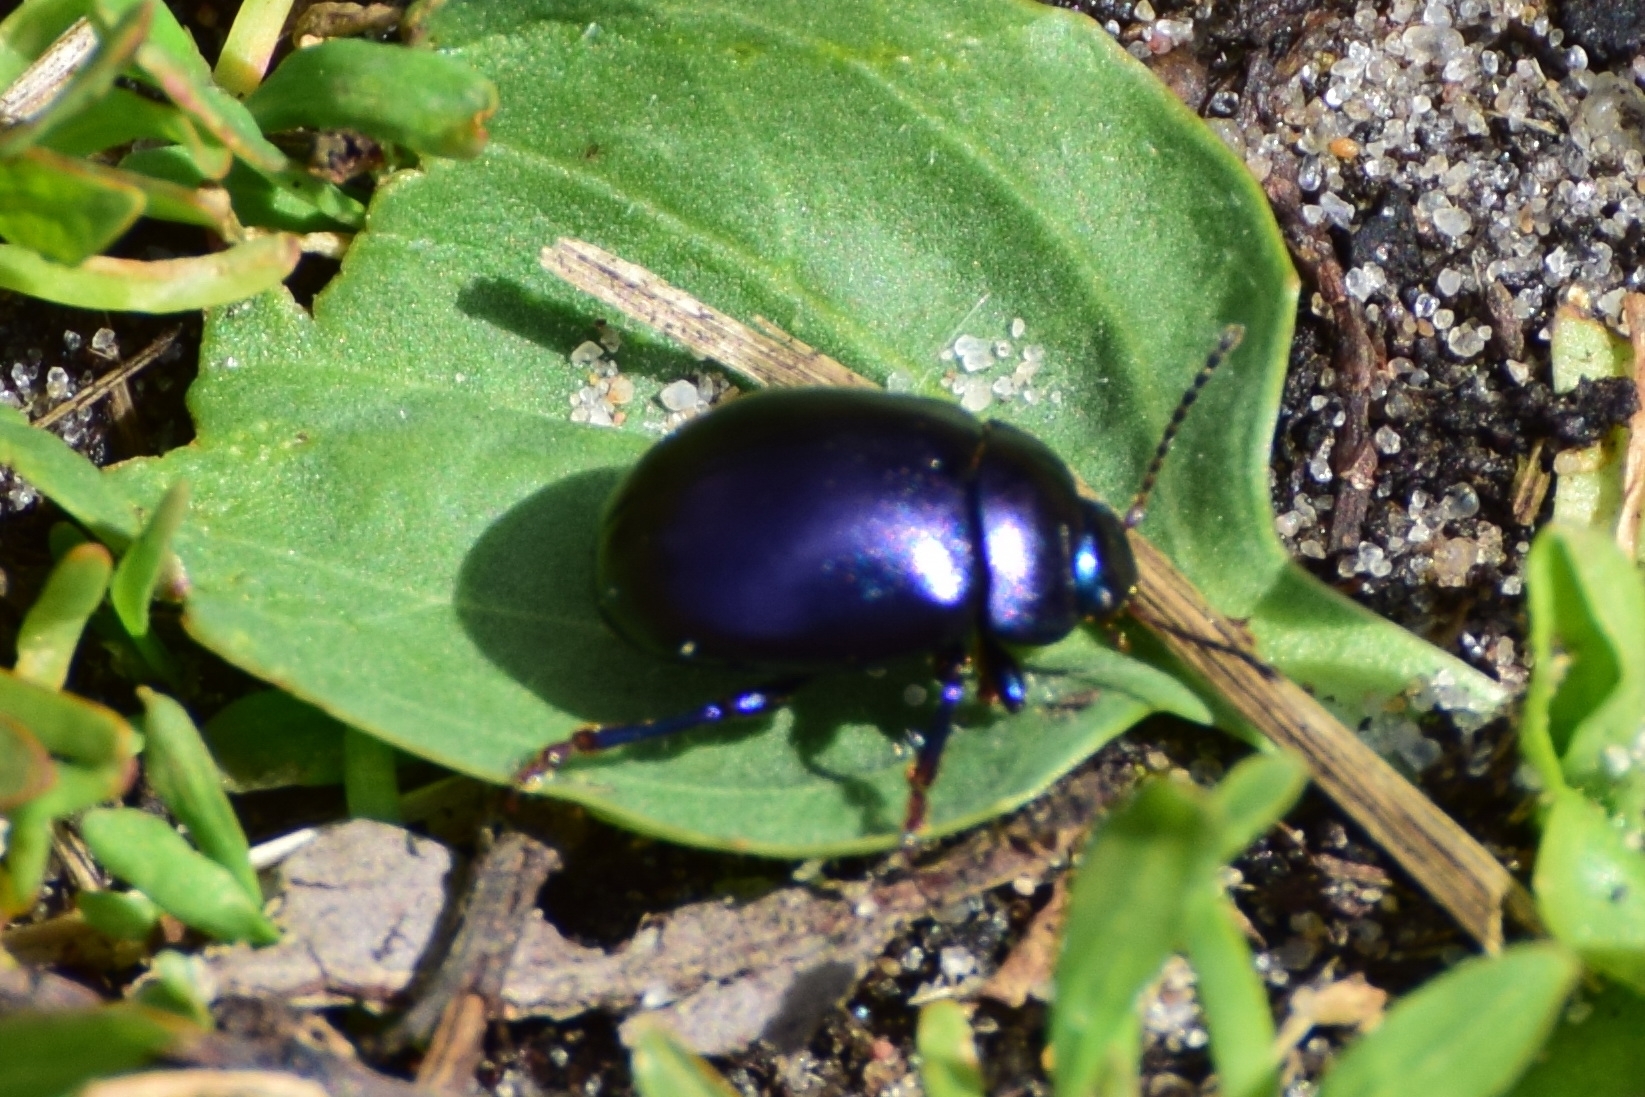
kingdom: Animalia
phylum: Arthropoda
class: Insecta
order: Coleoptera
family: Chrysomelidae
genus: Chrysolina
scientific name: Chrysolina sturmi
